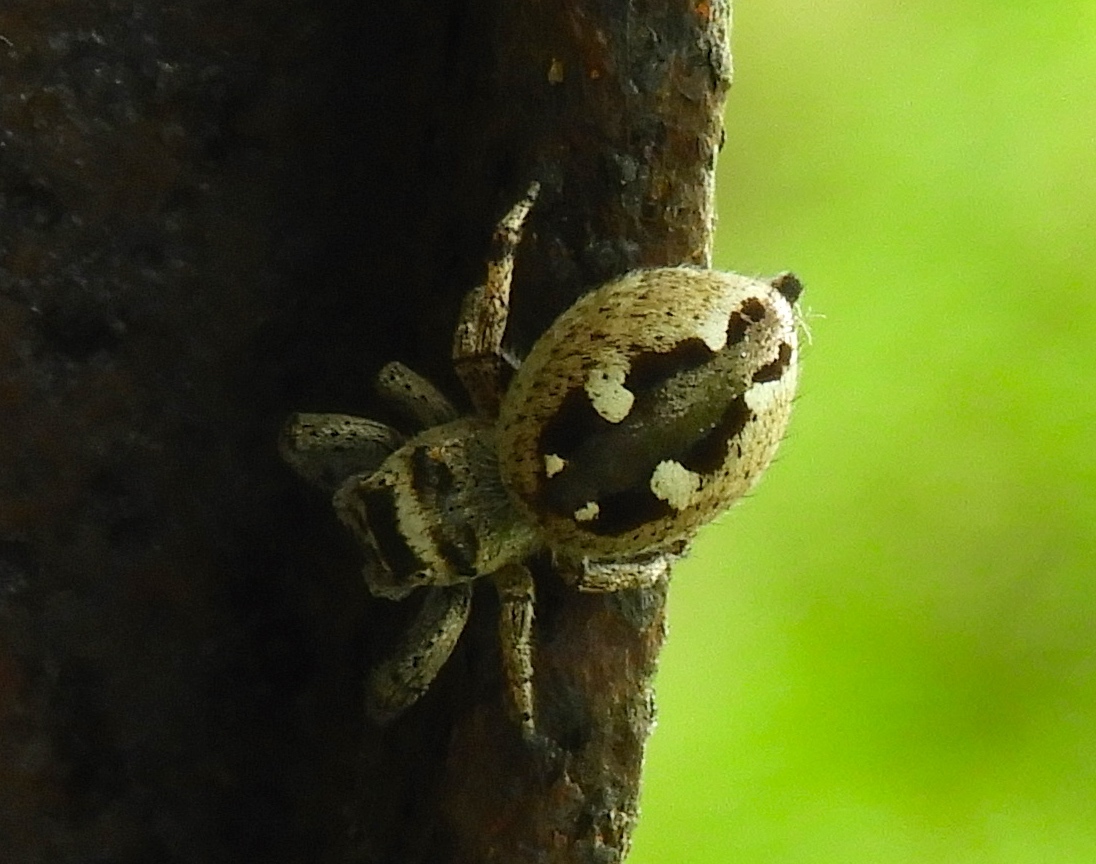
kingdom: Animalia
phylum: Arthropoda
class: Arachnida
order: Araneae
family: Salticidae
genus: Dendryphantes
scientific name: Dendryphantes zygoballoides
